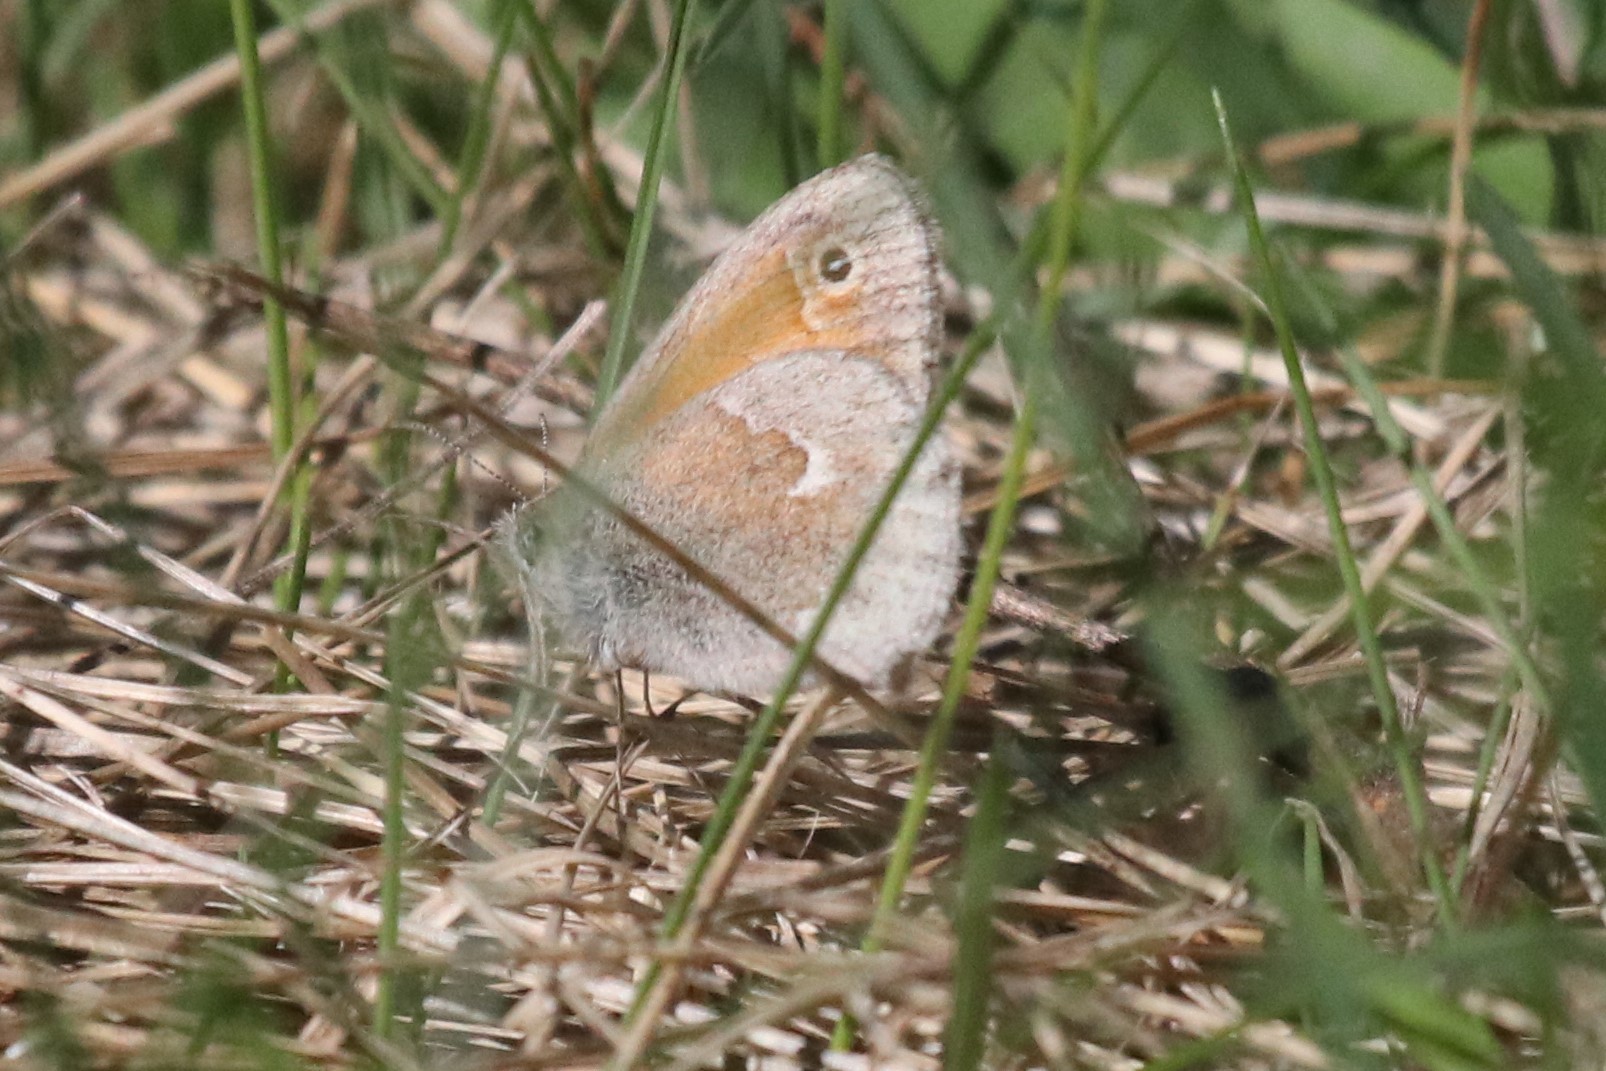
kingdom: Animalia
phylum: Arthropoda
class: Insecta
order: Lepidoptera
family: Nymphalidae
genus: Coenonympha
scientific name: Coenonympha california
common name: Common ringlet
